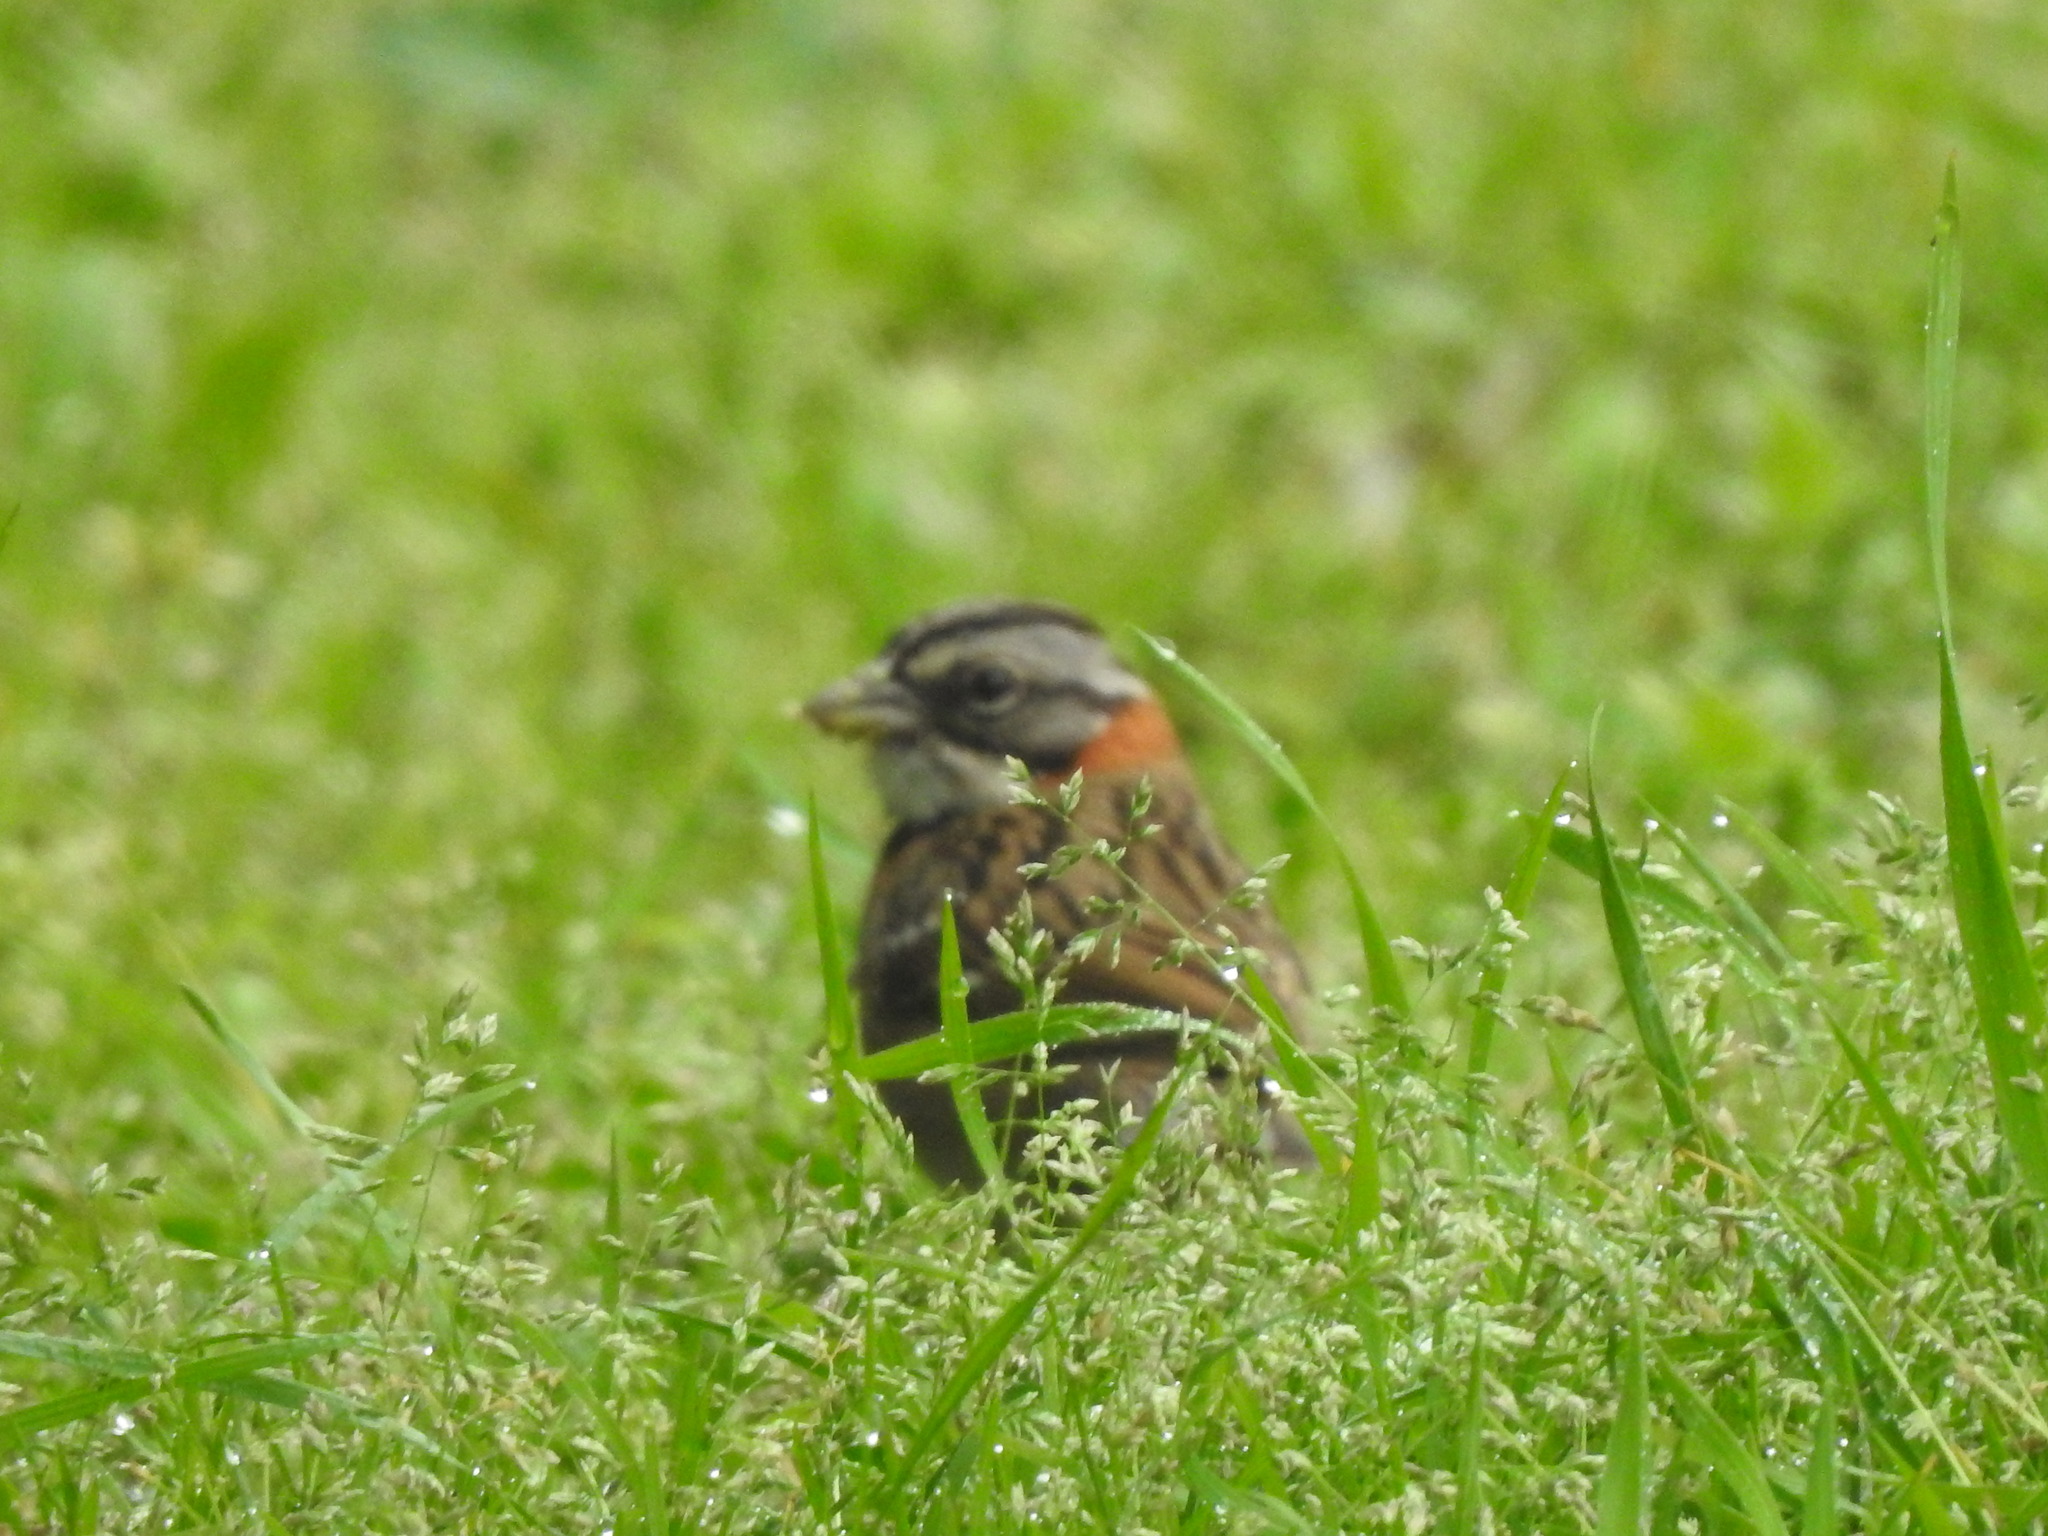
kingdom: Animalia
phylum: Chordata
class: Aves
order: Passeriformes
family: Passerellidae
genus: Zonotrichia
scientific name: Zonotrichia capensis
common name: Rufous-collared sparrow
